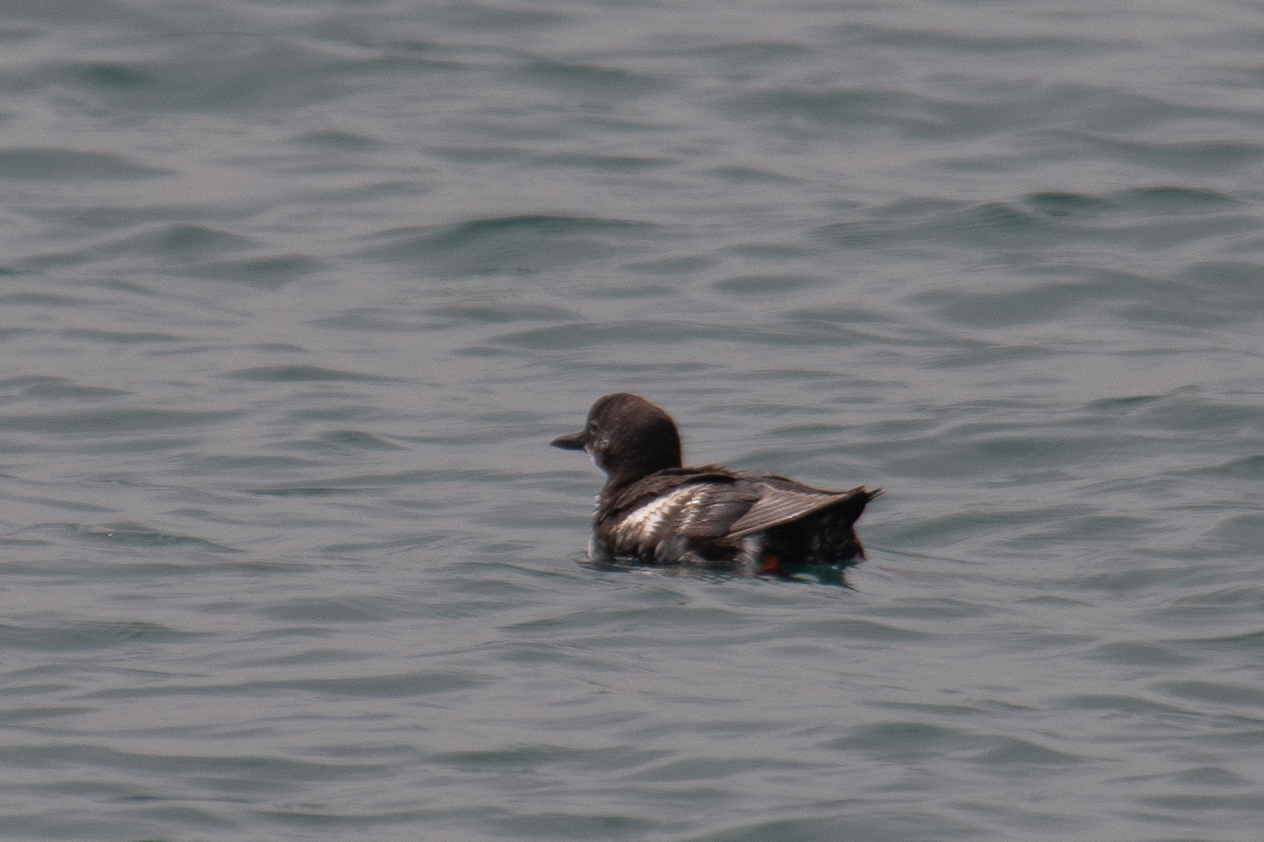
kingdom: Animalia
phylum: Chordata
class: Aves
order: Charadriiformes
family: Alcidae
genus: Cepphus
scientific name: Cepphus columba
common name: Pigeon guillemot
